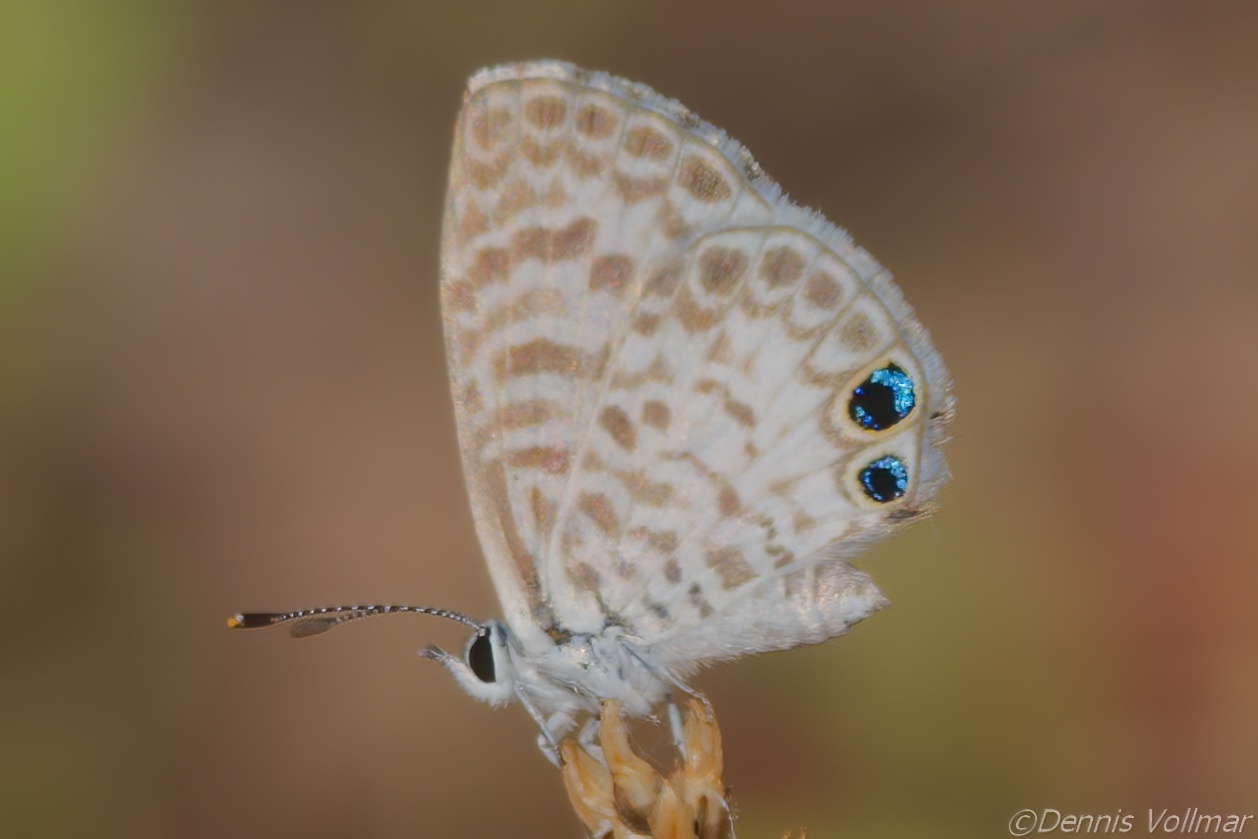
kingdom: Animalia
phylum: Arthropoda
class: Insecta
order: Lepidoptera
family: Lycaenidae
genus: Leptotes
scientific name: Leptotes cassius
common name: Cassius blue
